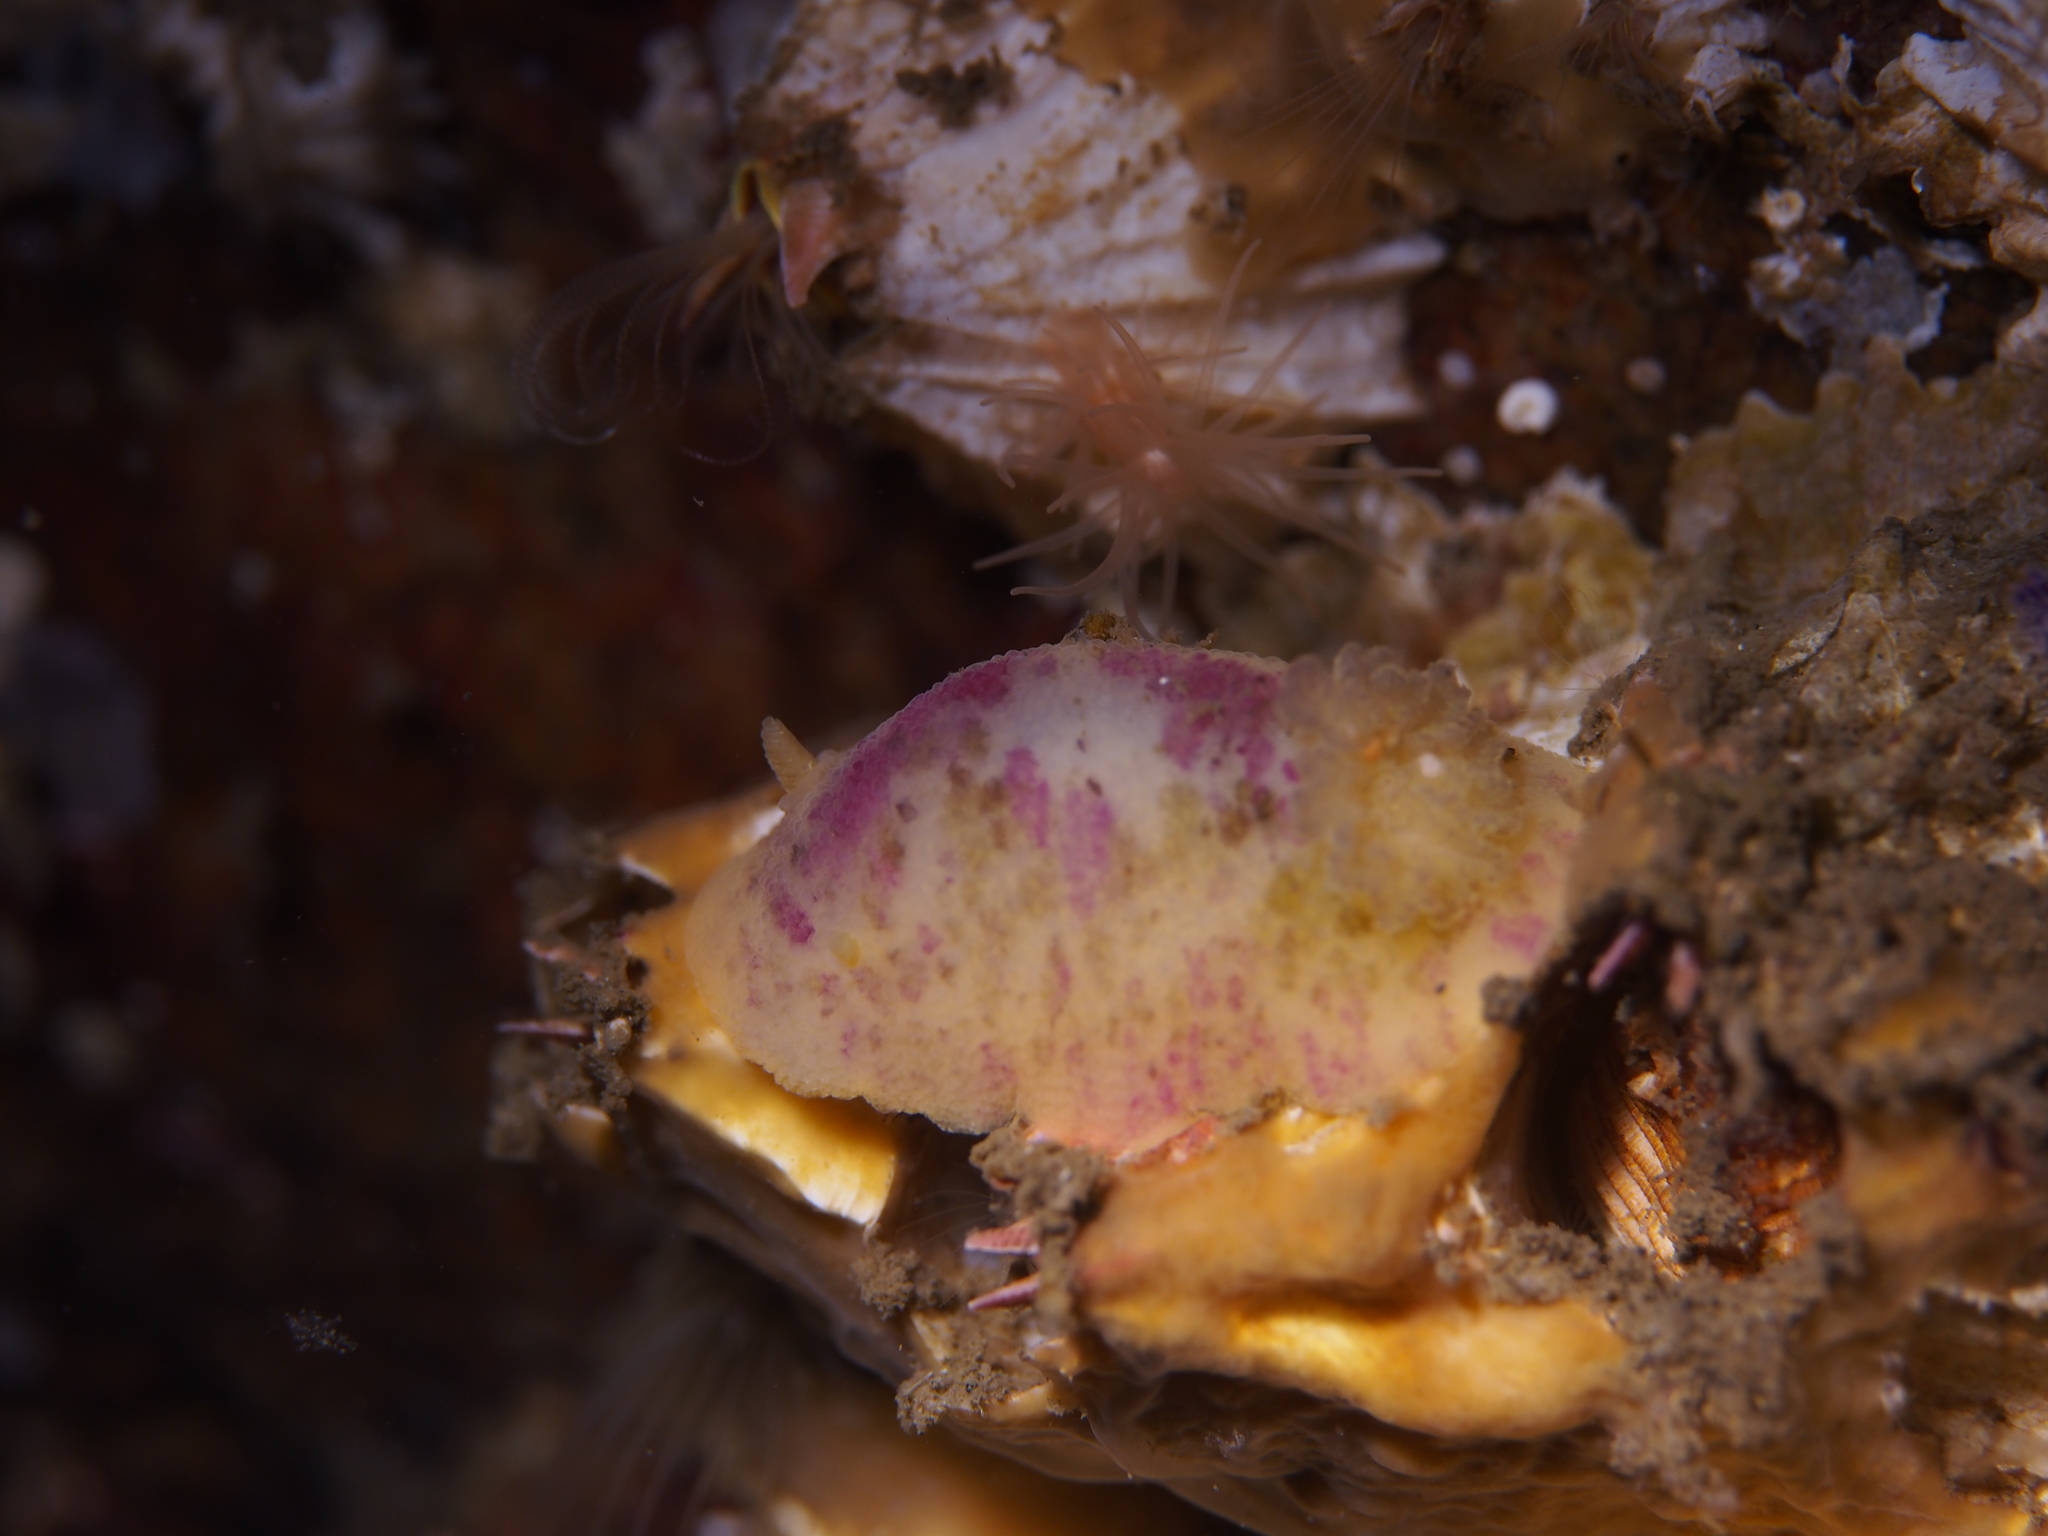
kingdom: Animalia
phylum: Mollusca
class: Gastropoda
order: Nudibranchia
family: Dorididae
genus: Doris
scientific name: Doris pseudoargus
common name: Sea lemon
